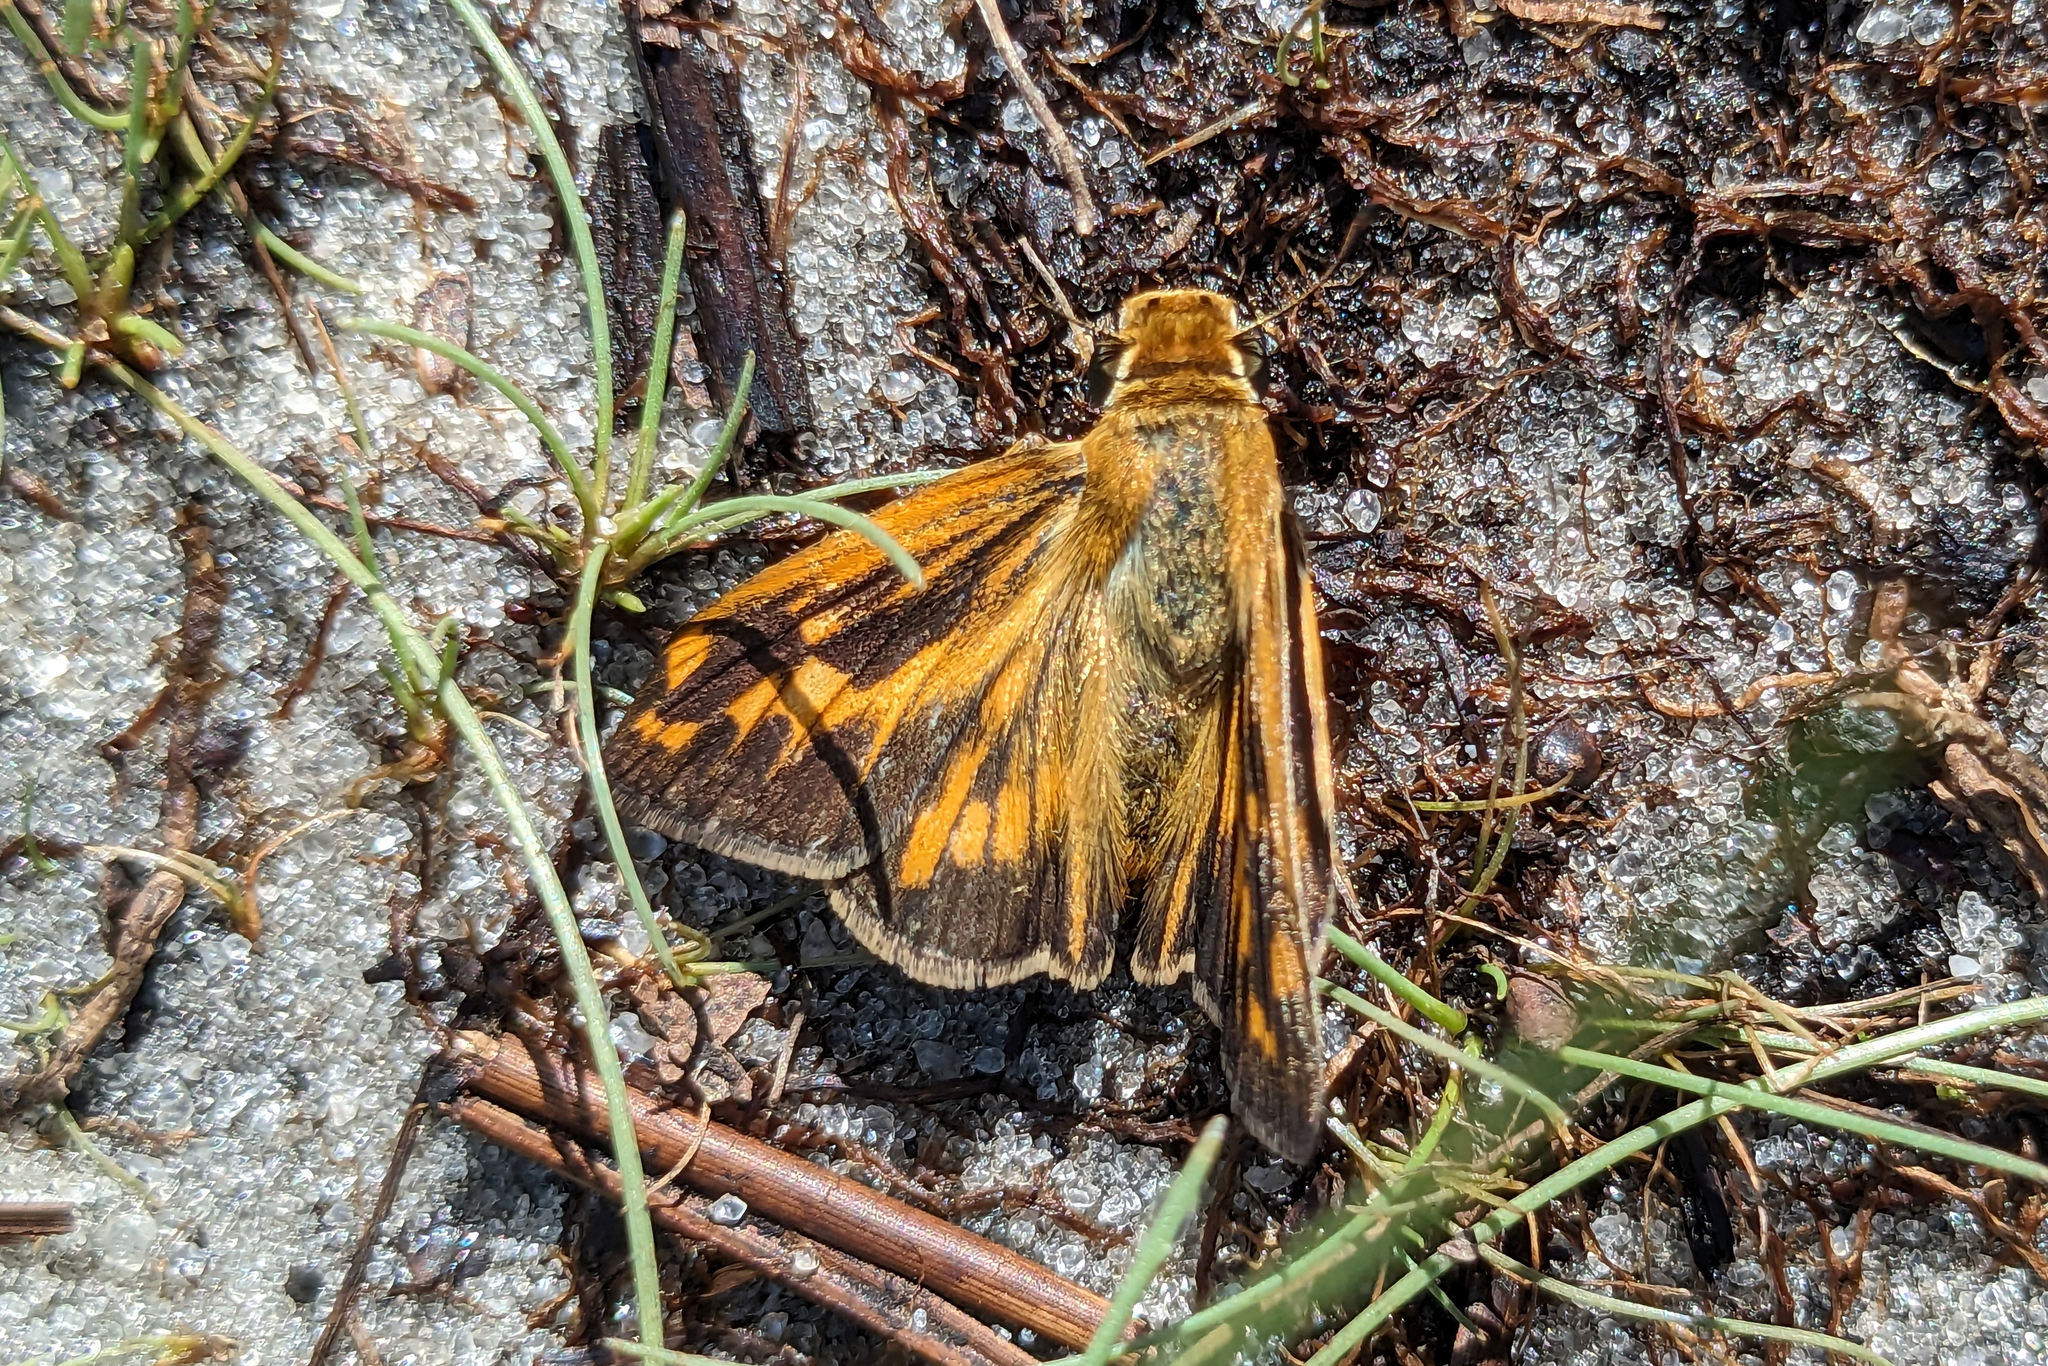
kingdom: Animalia
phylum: Arthropoda
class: Insecta
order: Lepidoptera
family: Hesperiidae
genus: Hylephila
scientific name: Hylephila phyleus
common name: Fiery skipper
